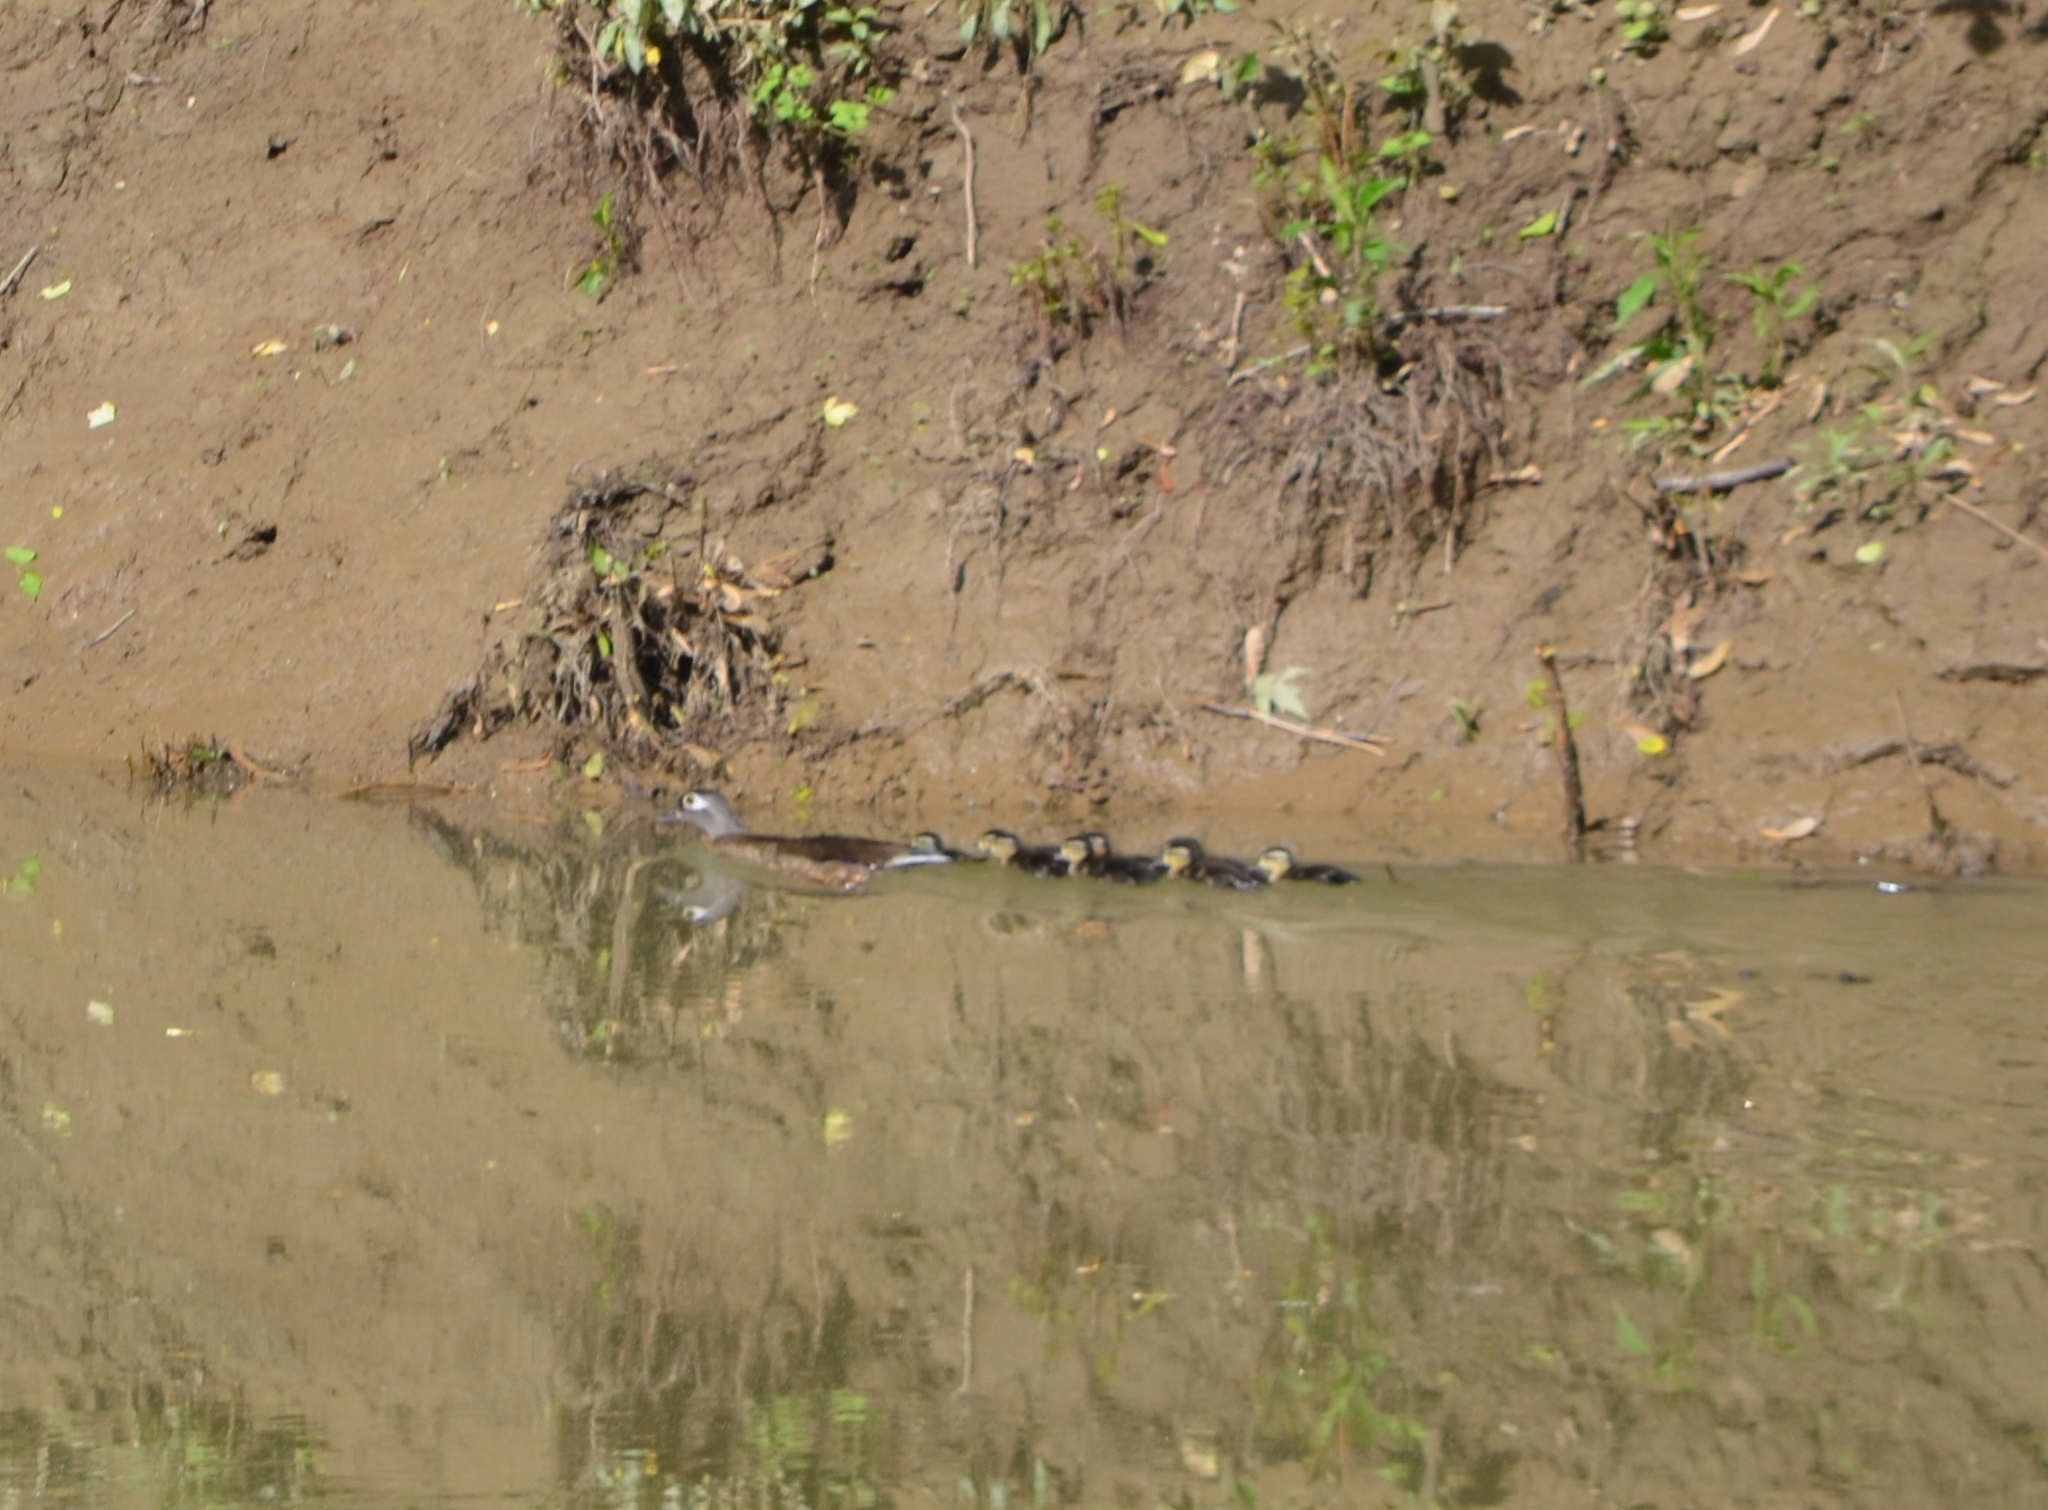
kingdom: Animalia
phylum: Chordata
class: Aves
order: Anseriformes
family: Anatidae
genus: Aix
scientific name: Aix sponsa
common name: Wood duck
